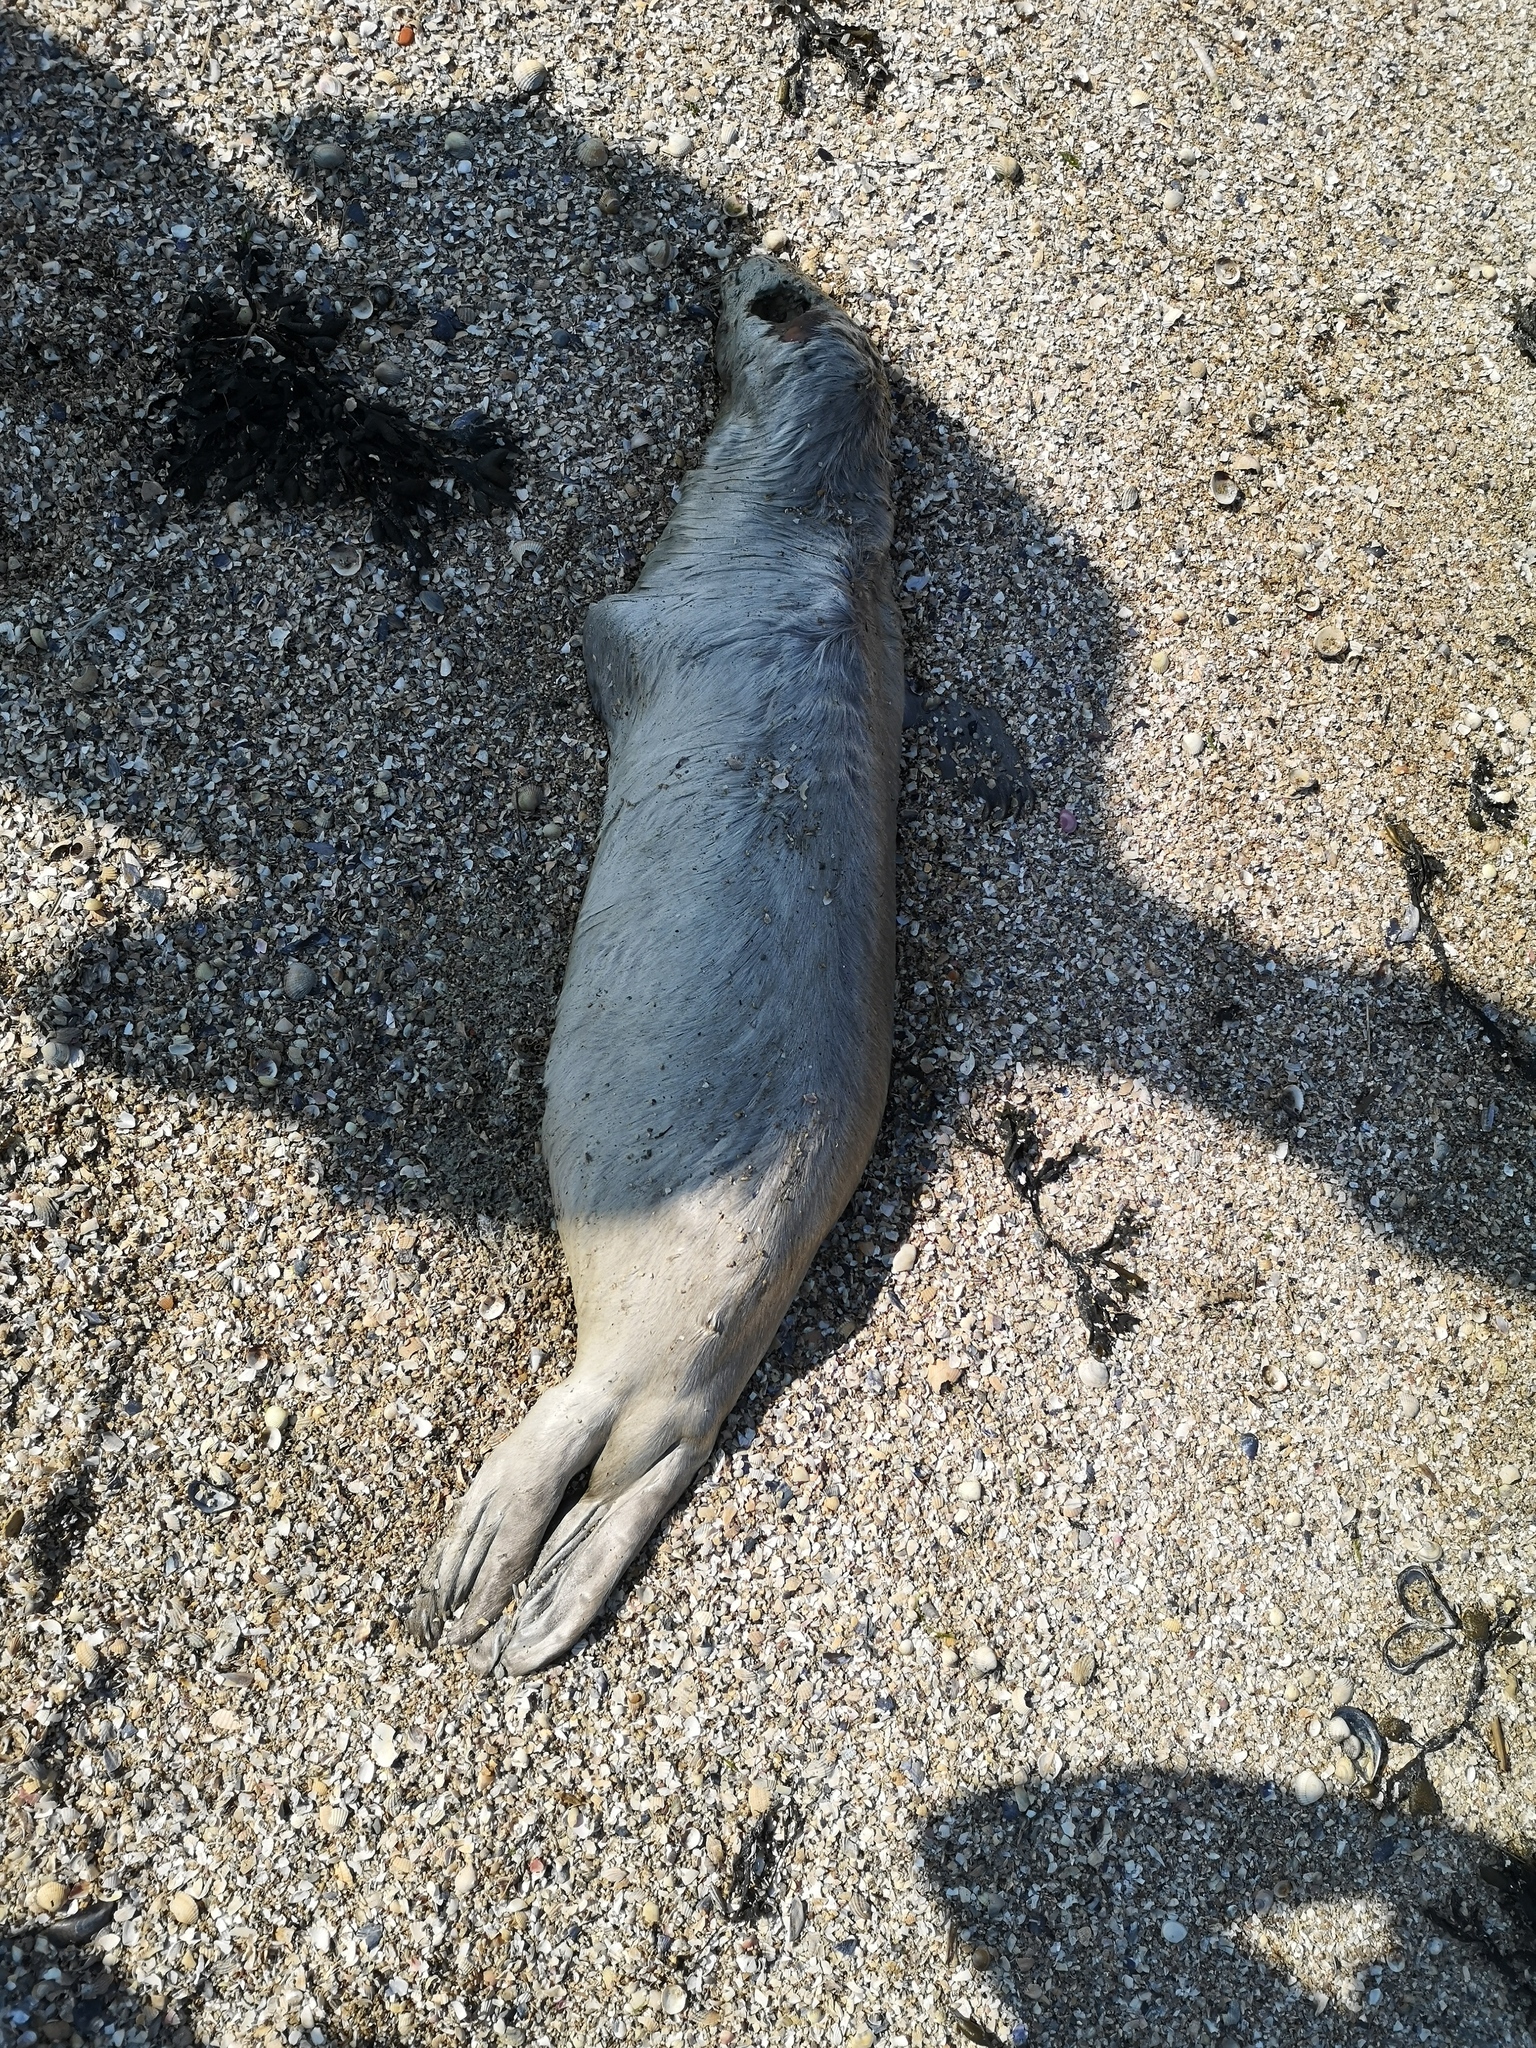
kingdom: Animalia
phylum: Chordata
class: Mammalia
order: Carnivora
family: Phocidae
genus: Phoca
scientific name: Phoca vitulina
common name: Harbor seal
